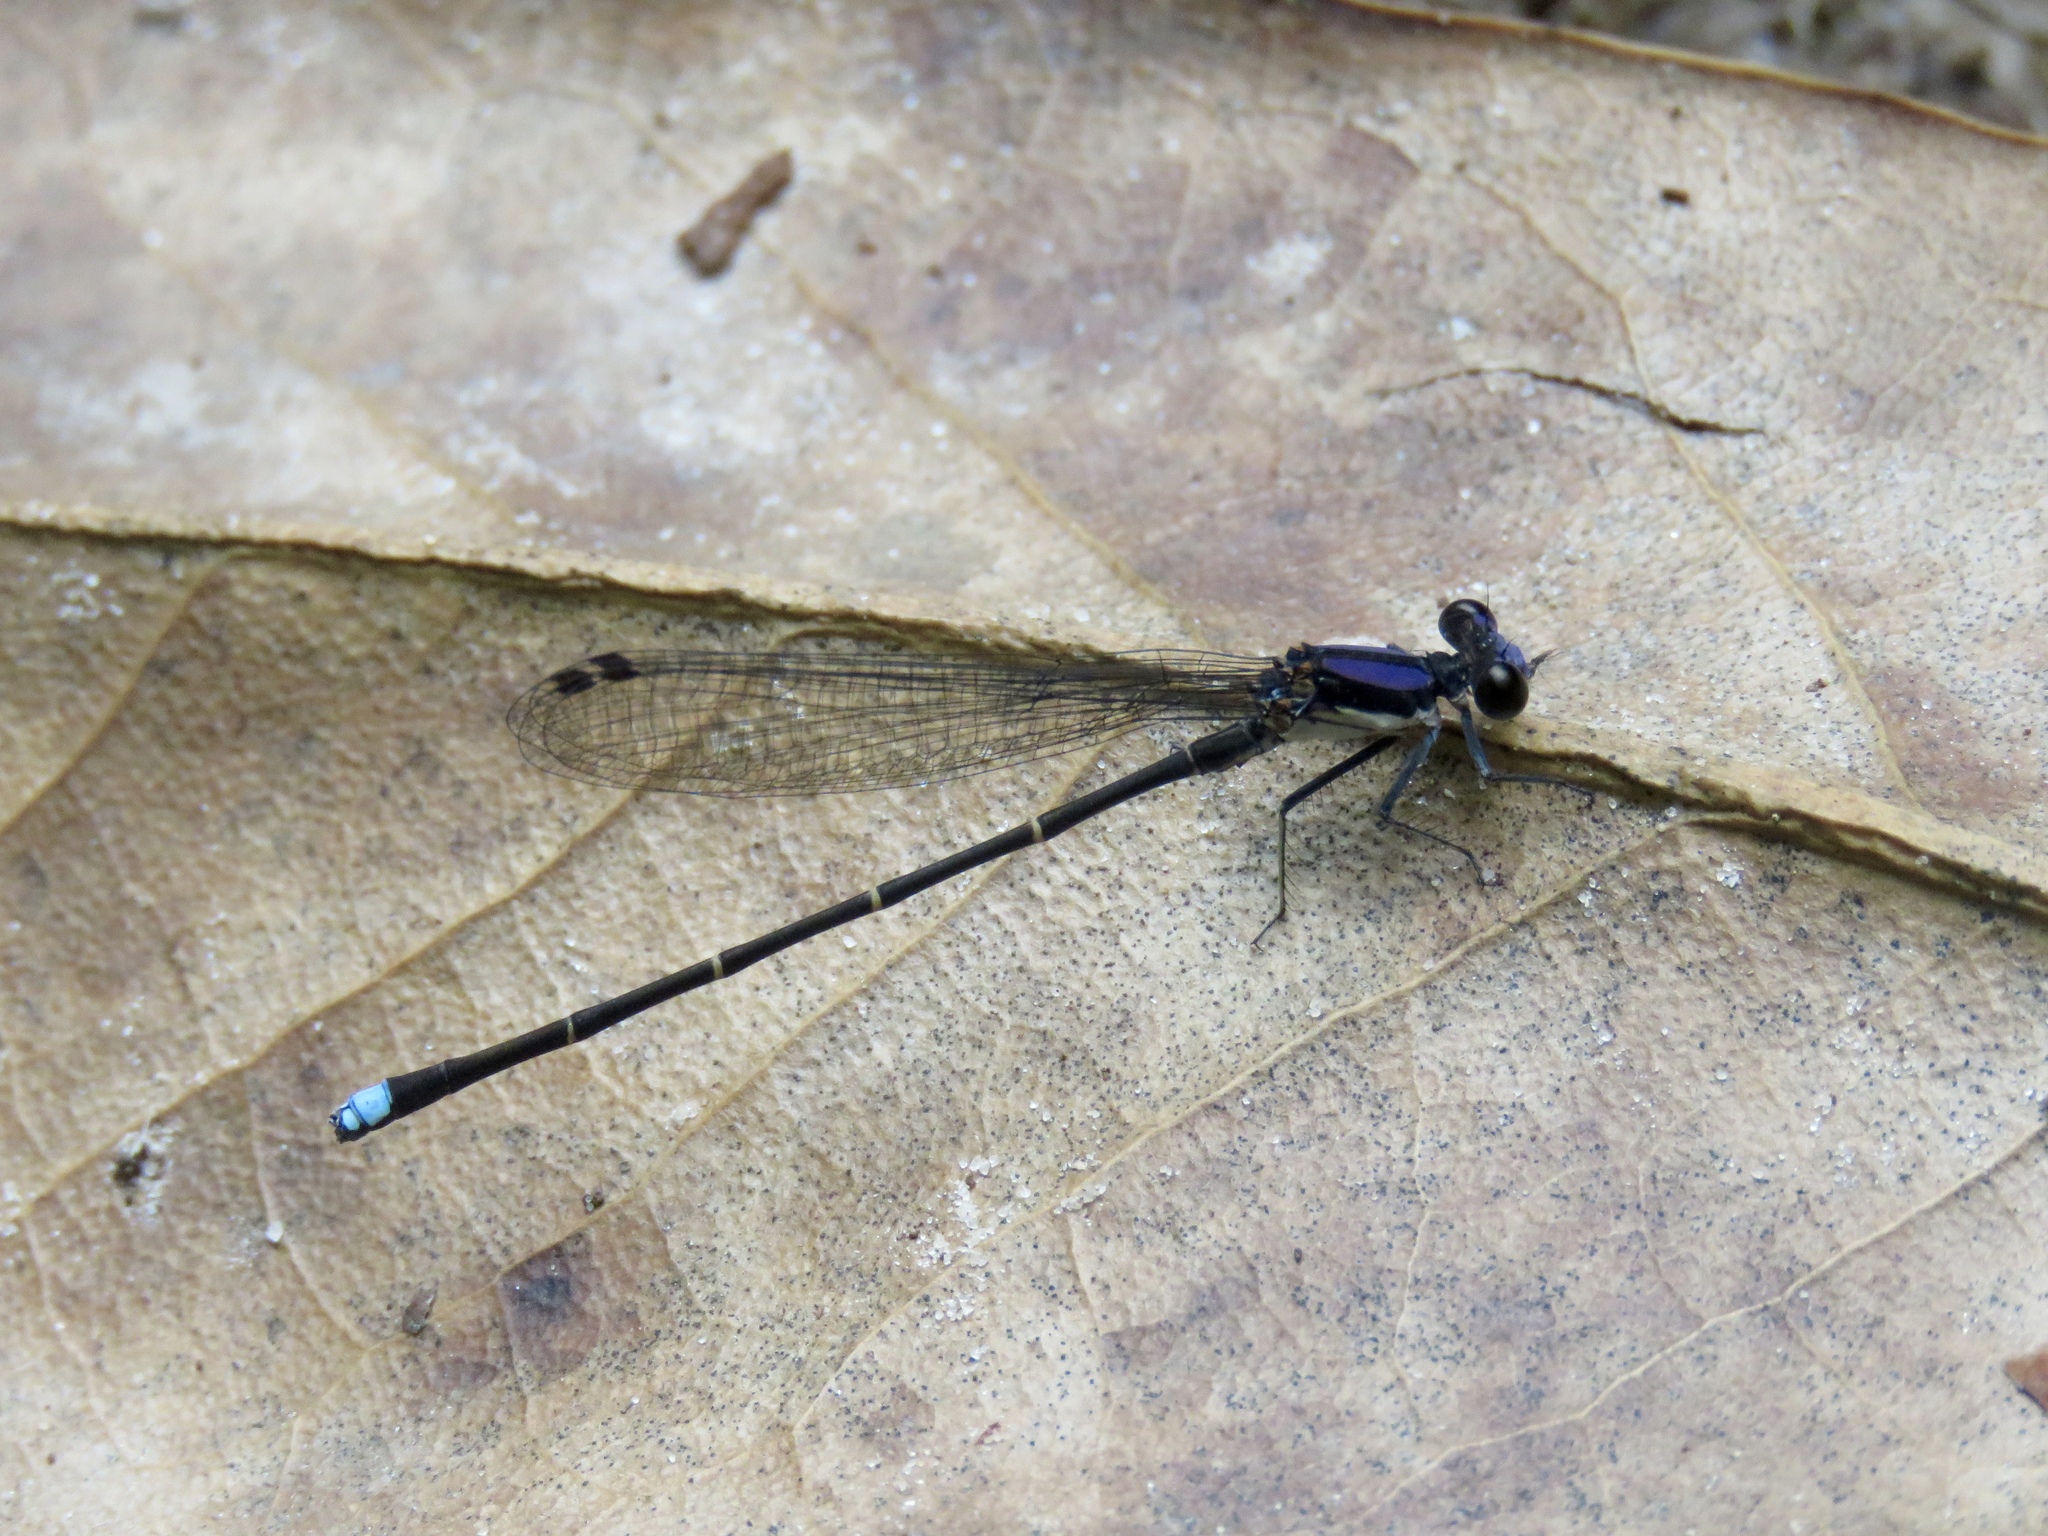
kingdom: Animalia
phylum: Arthropoda
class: Insecta
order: Odonata
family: Coenagrionidae
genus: Argia
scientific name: Argia tibialis
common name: Blue-tipped dancer
